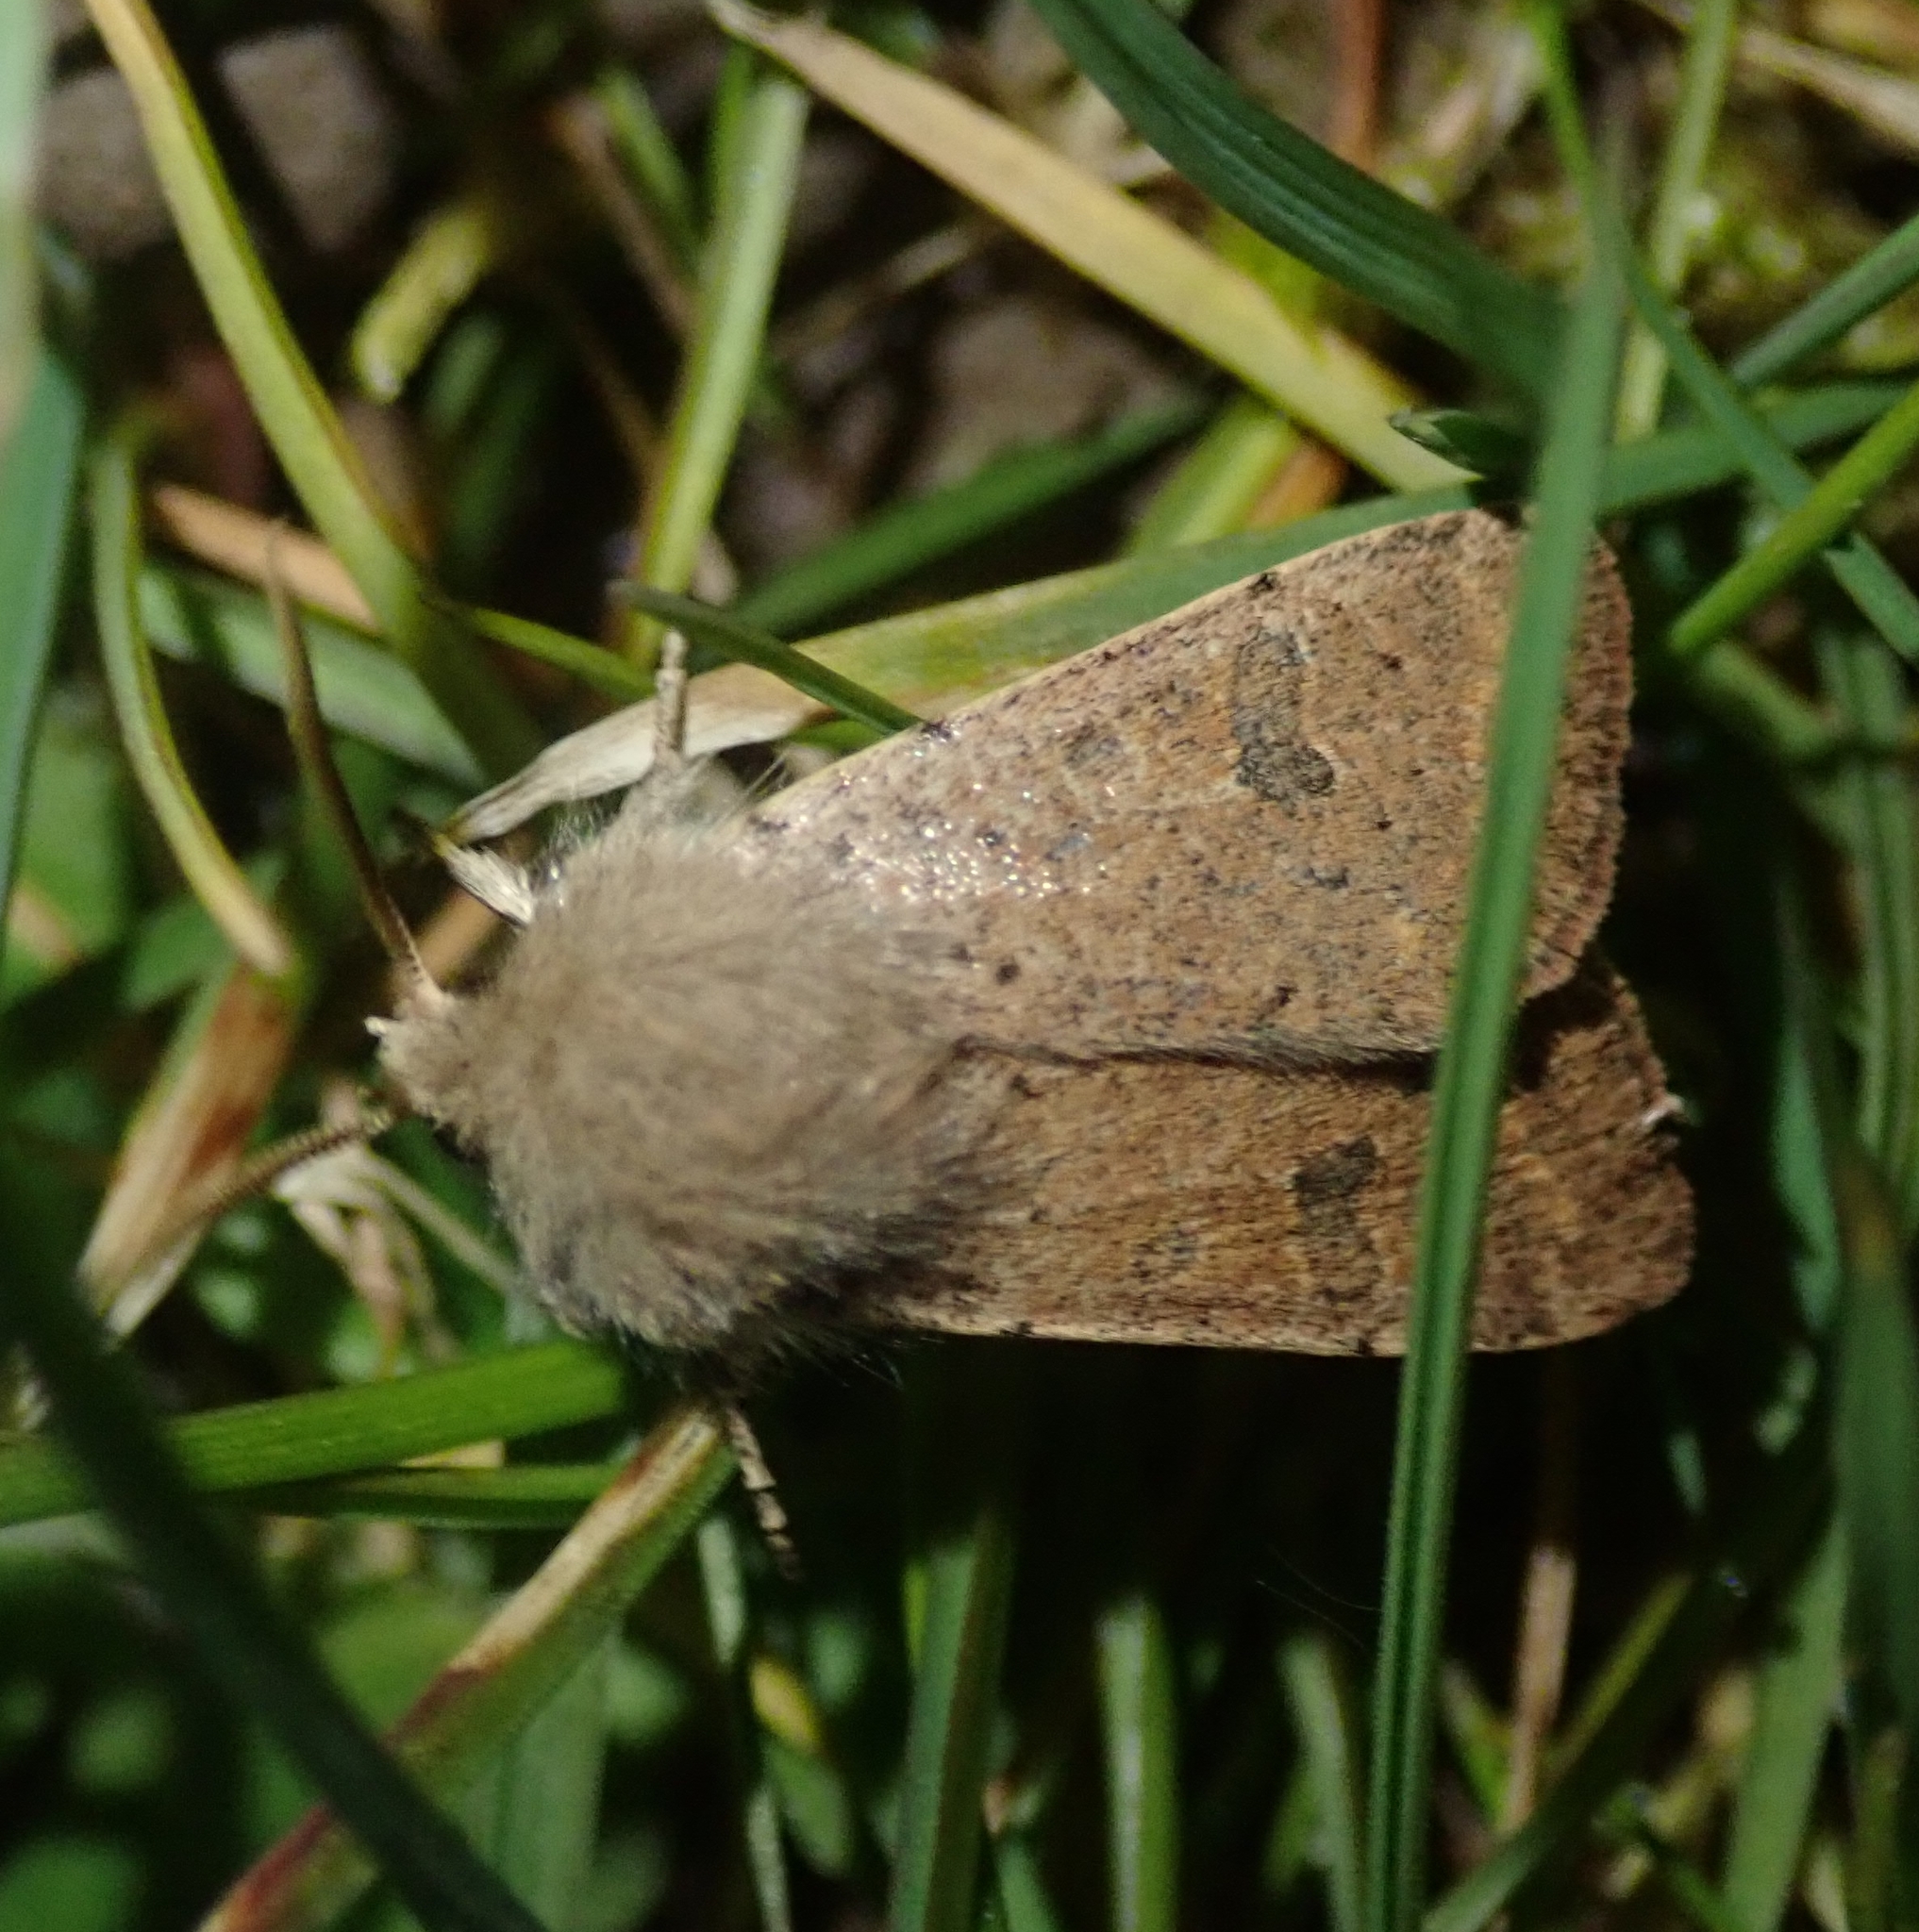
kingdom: Animalia
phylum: Arthropoda
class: Insecta
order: Lepidoptera
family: Noctuidae
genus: Orthosia
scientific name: Orthosia cruda
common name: Small quaker
